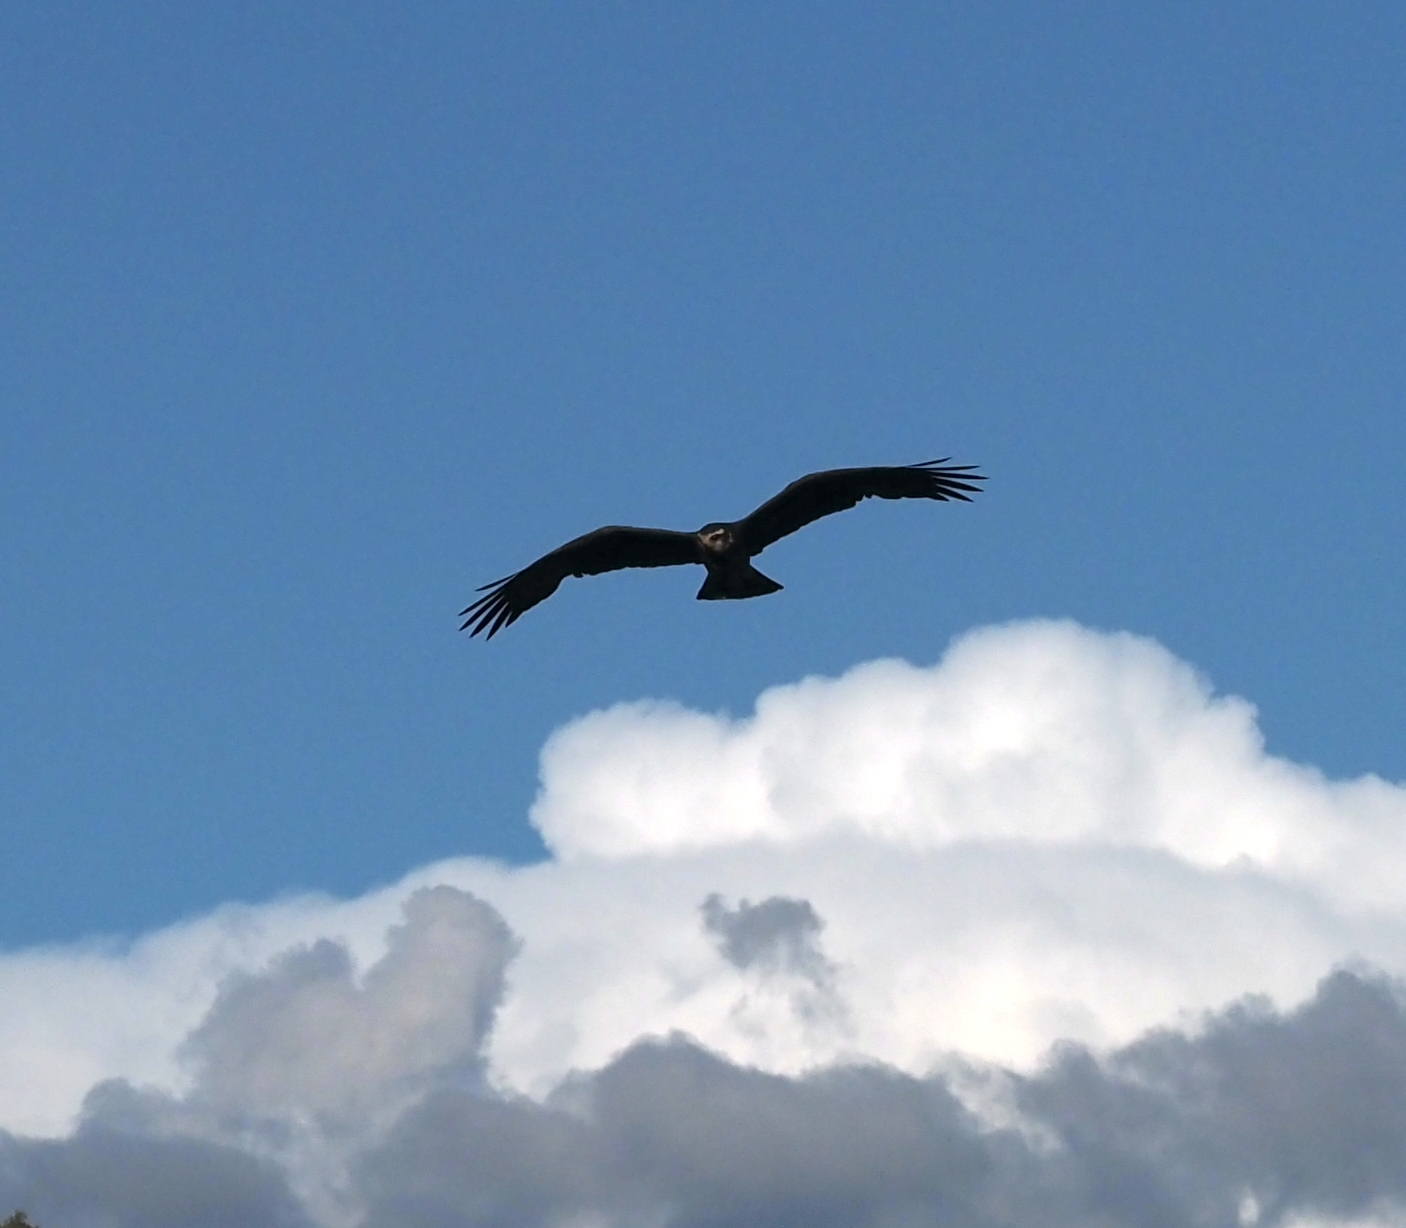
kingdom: Animalia
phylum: Chordata
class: Aves
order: Accipitriformes
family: Accipitridae
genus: Rostrhamus
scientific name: Rostrhamus sociabilis
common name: Snail kite
